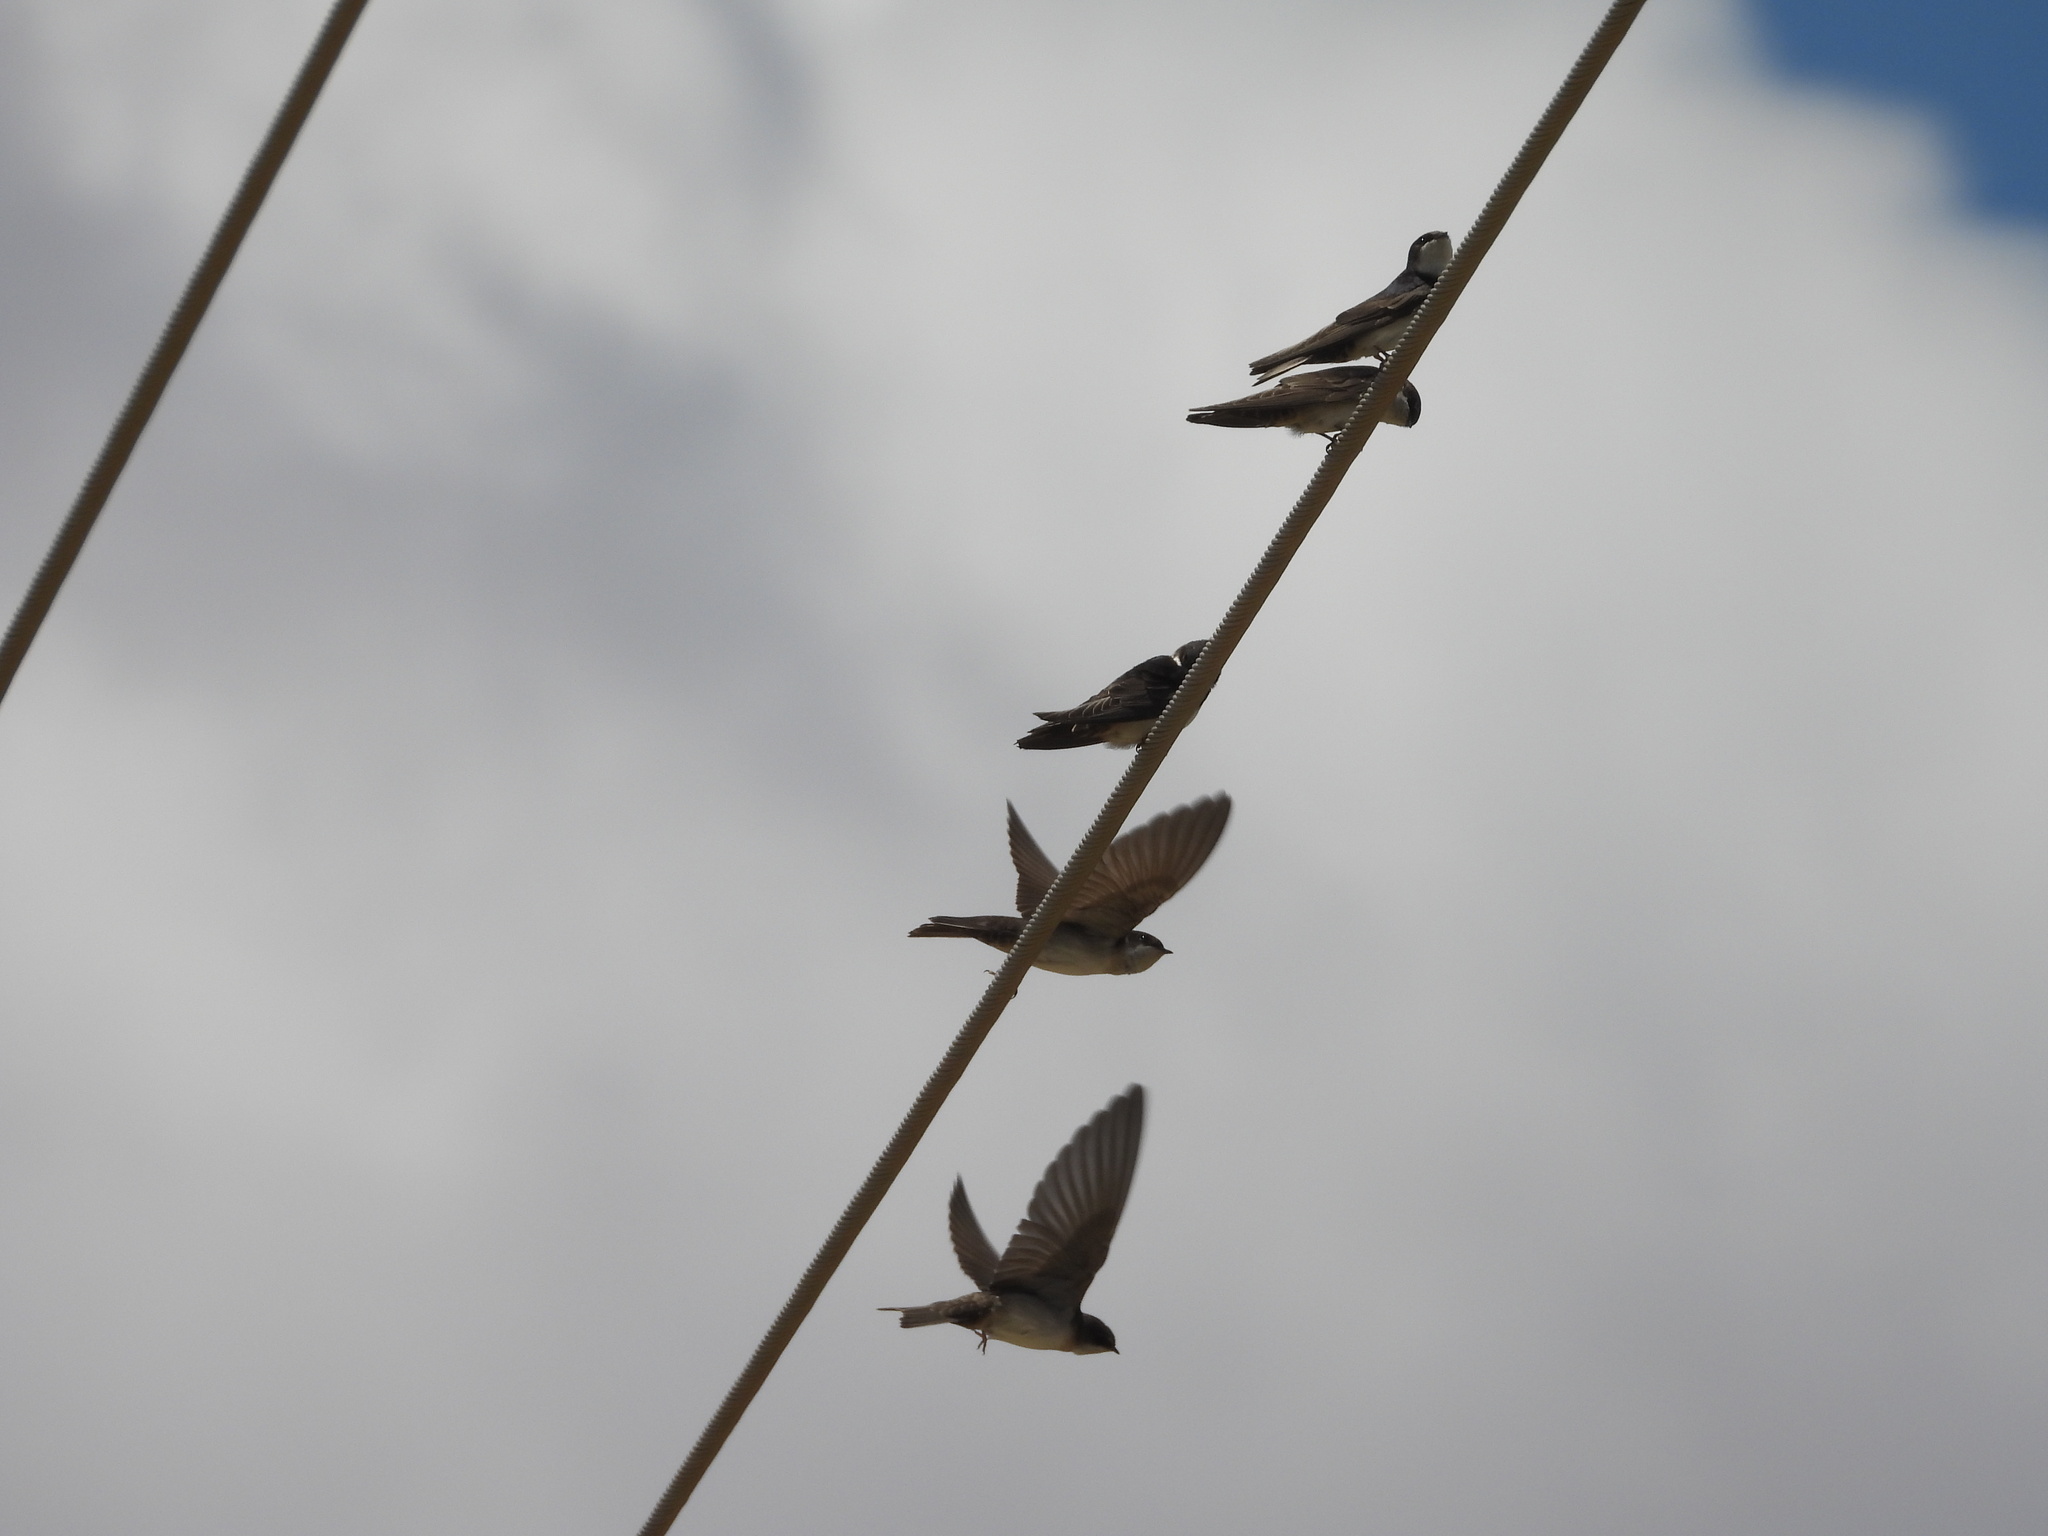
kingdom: Animalia
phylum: Chordata
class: Aves
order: Passeriformes
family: Hirundinidae
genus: Notiochelidon
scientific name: Notiochelidon cyanoleuca
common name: Blue-and-white swallow
